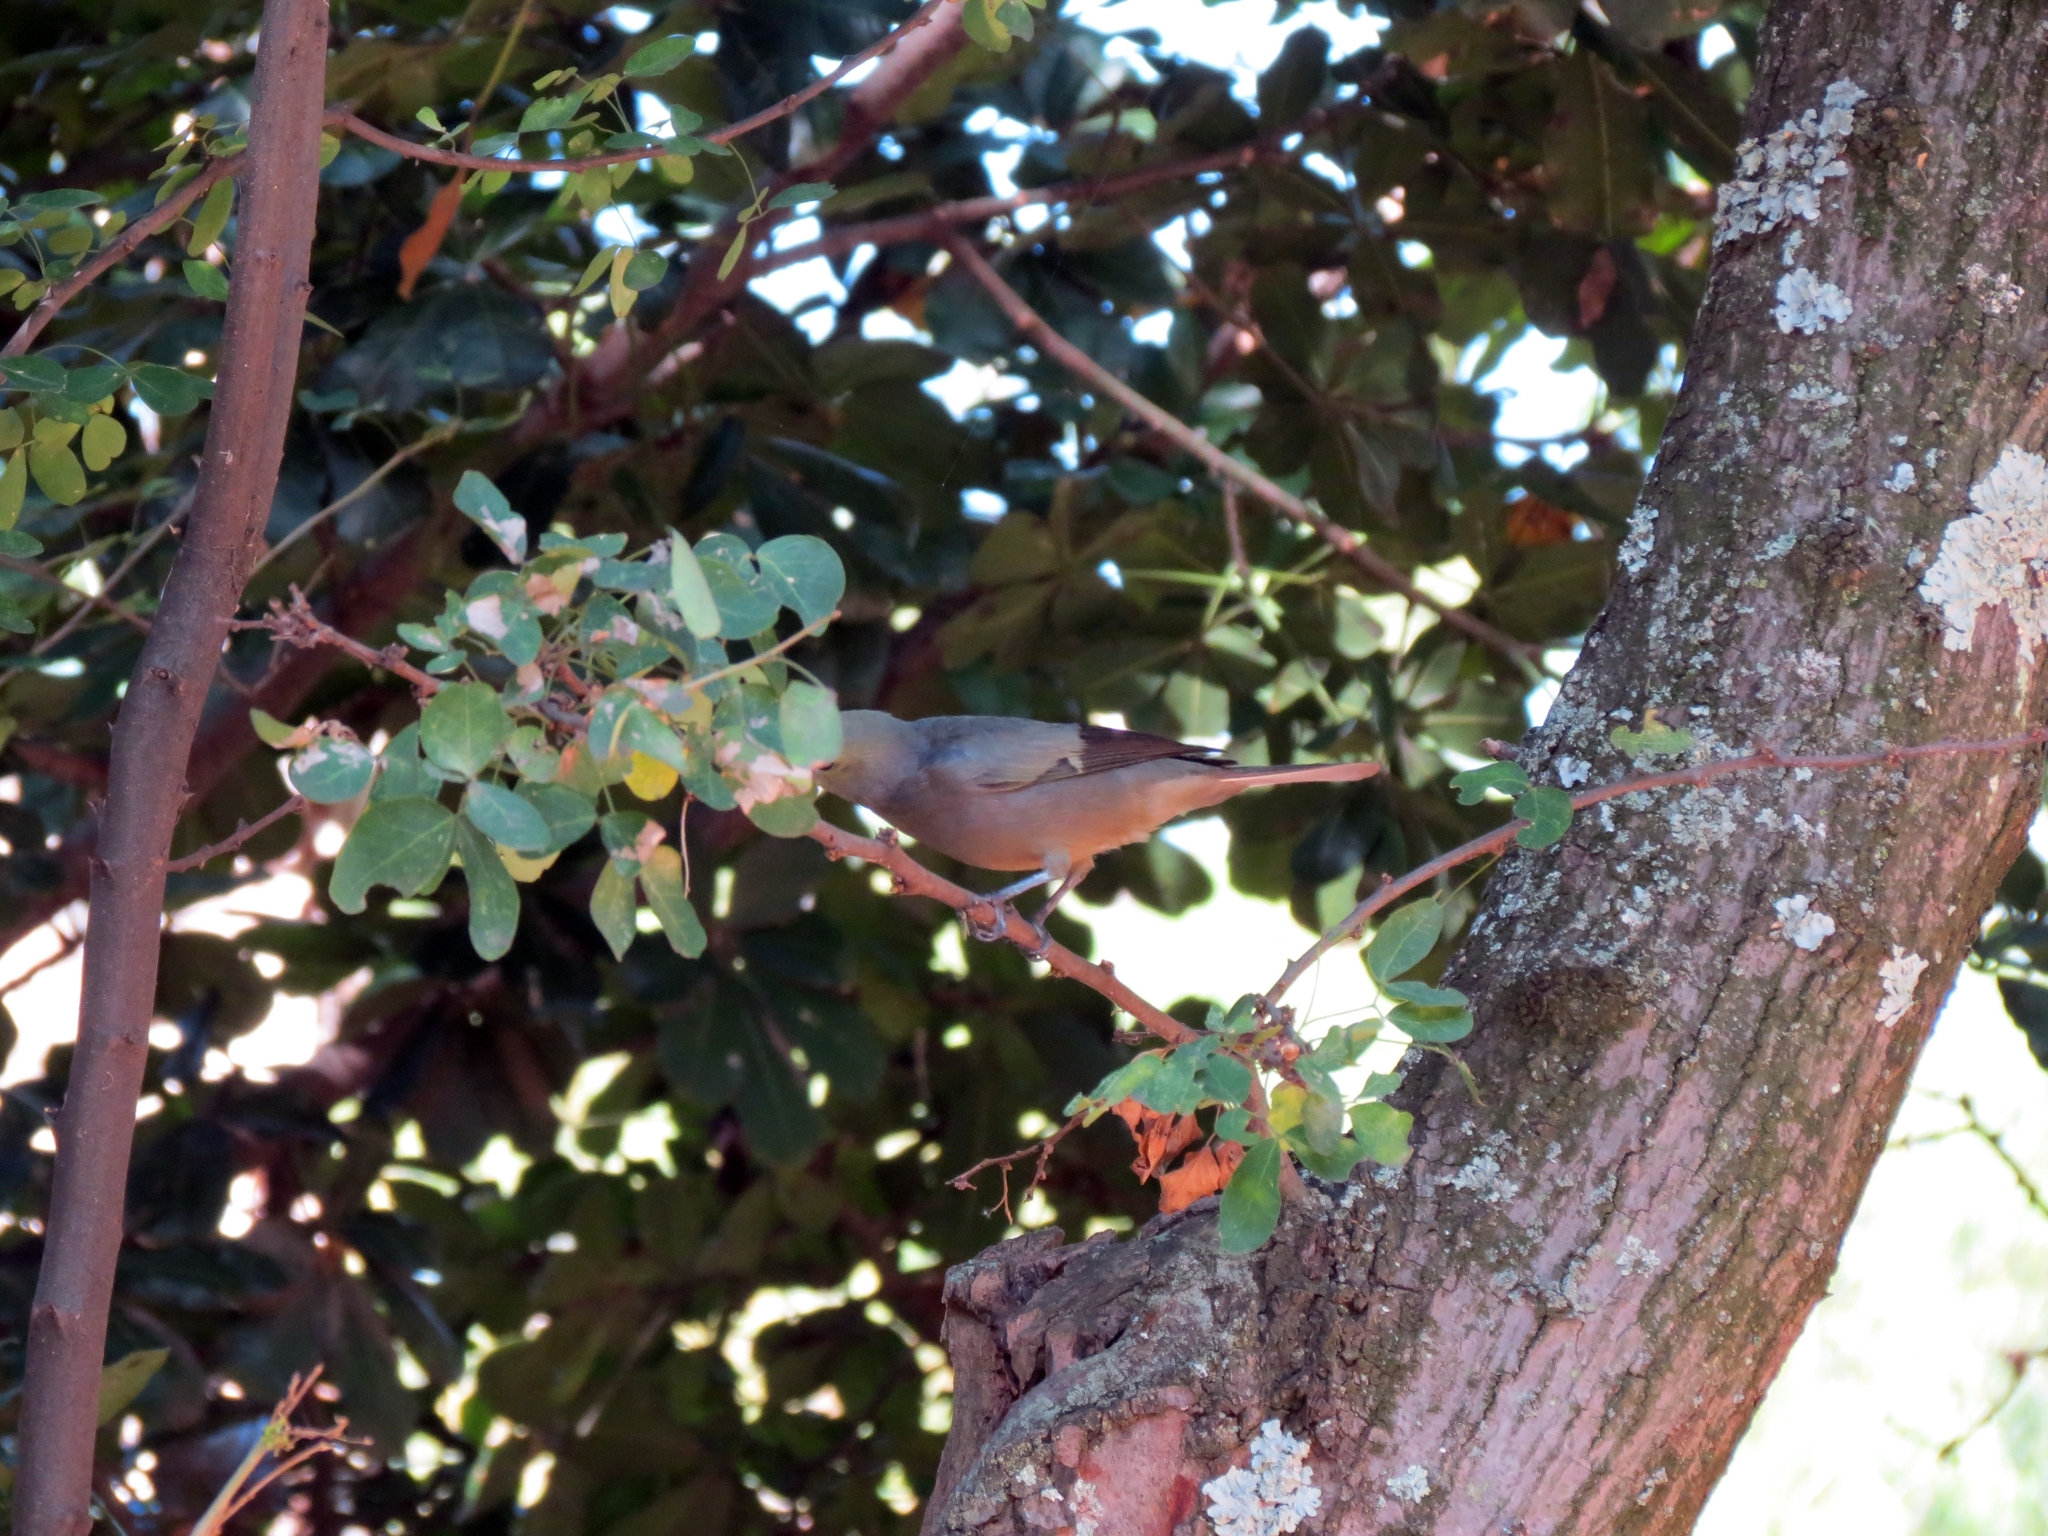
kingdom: Animalia
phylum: Chordata
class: Aves
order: Passeriformes
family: Thraupidae
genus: Thraupis
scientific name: Thraupis palmarum
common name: Palm tanager
